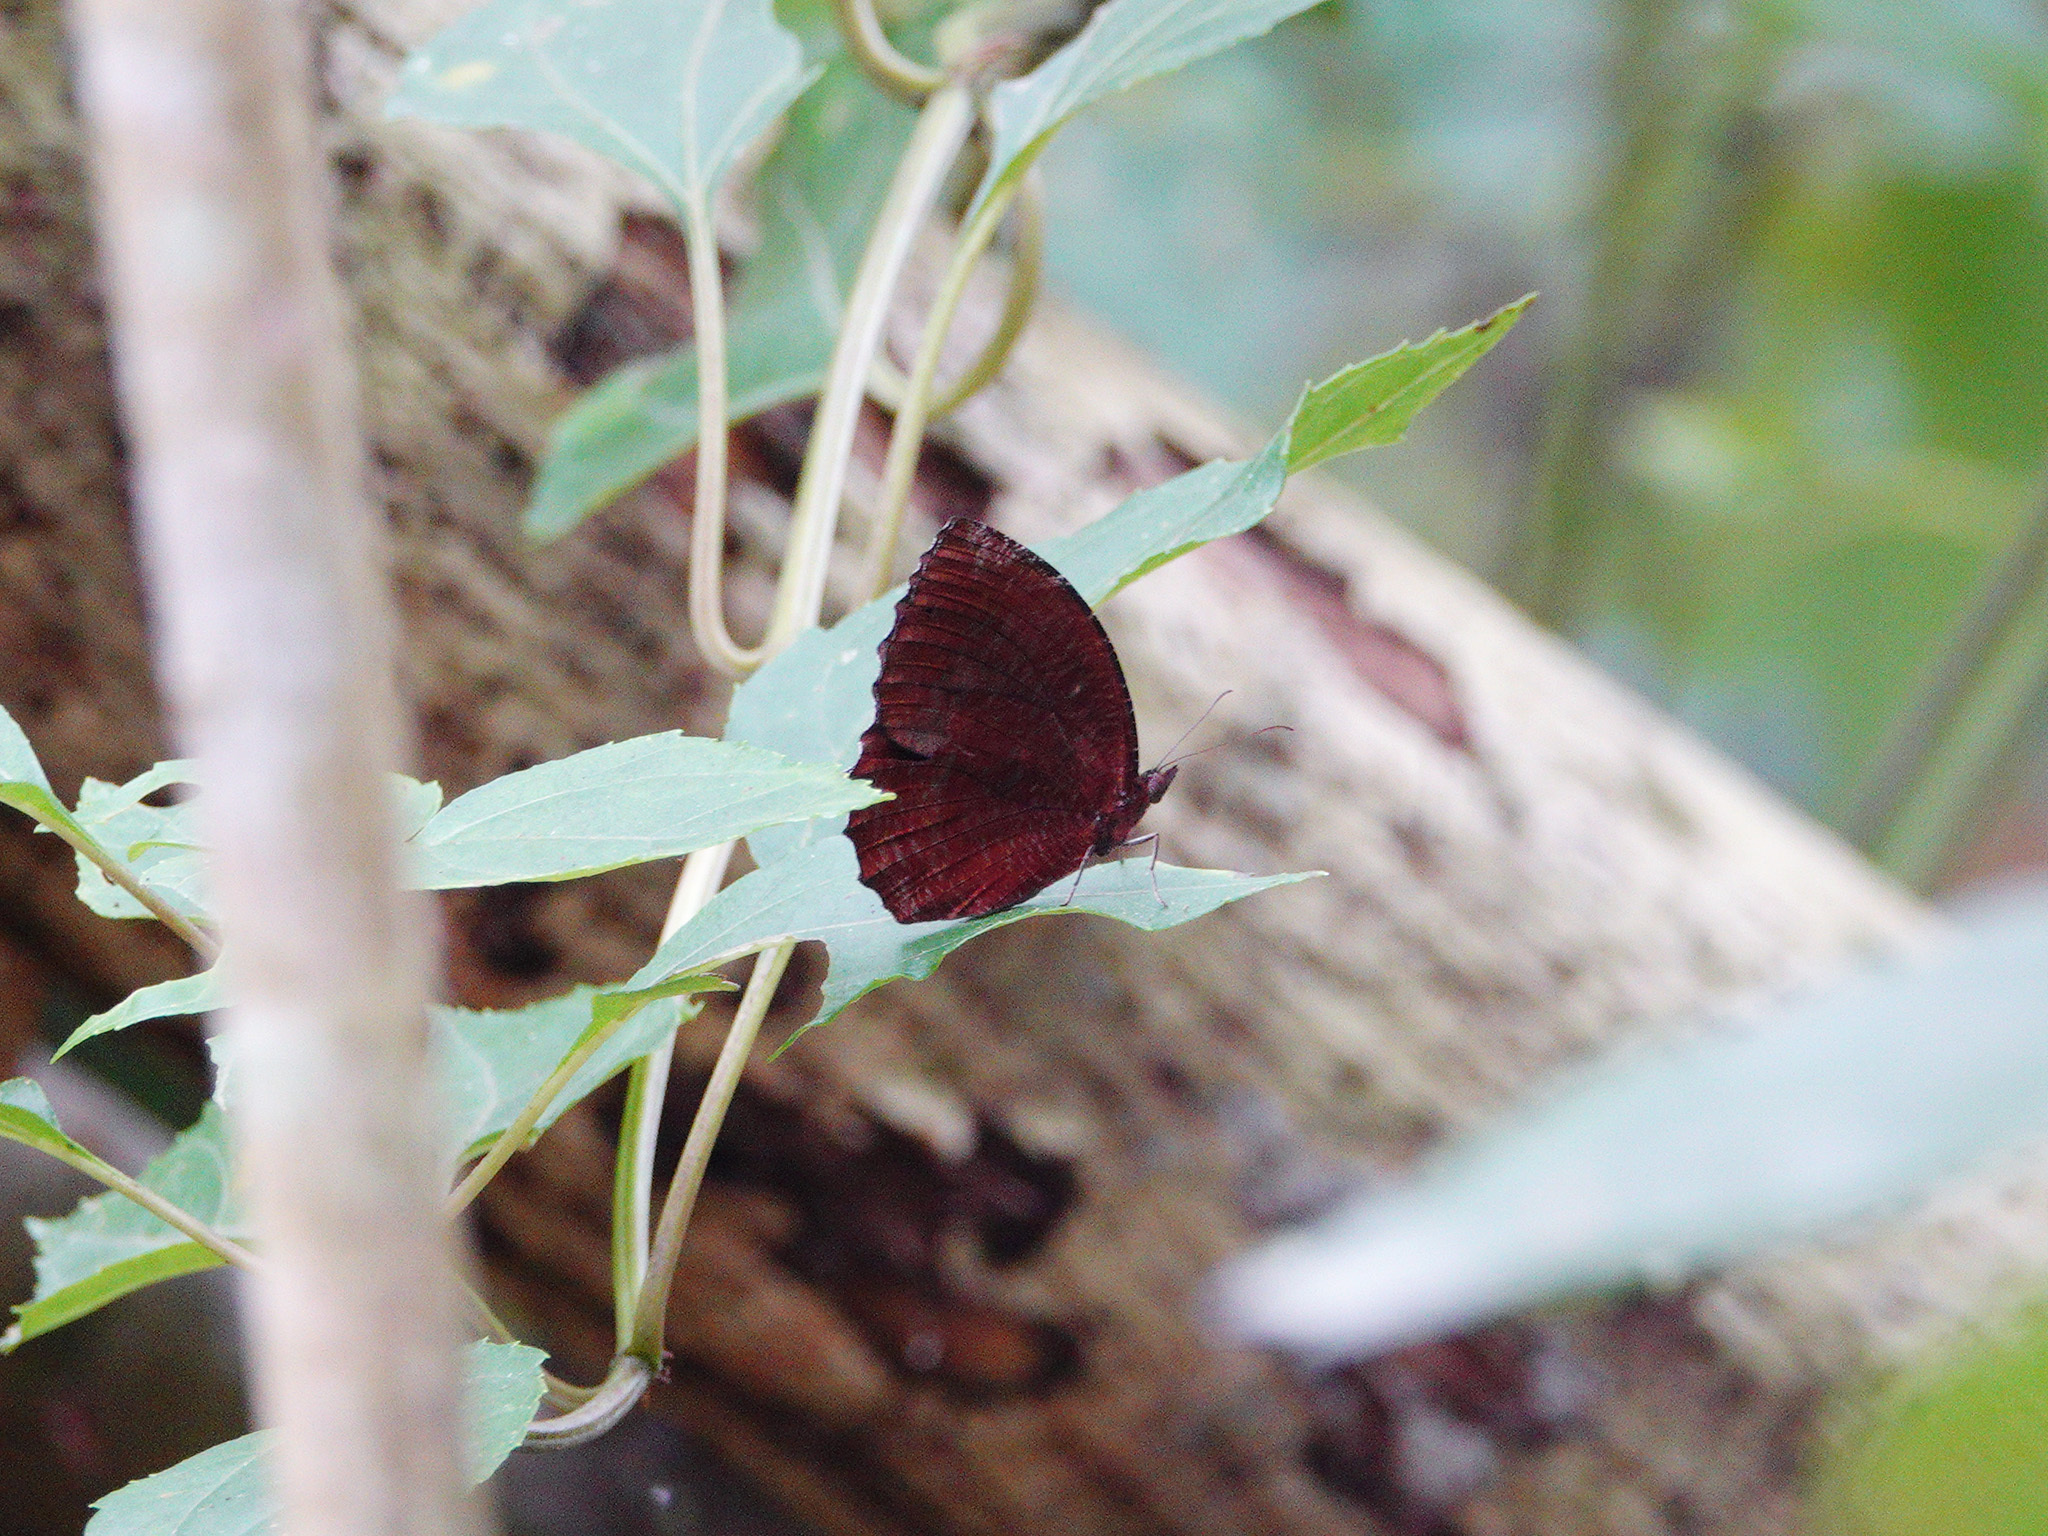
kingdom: Animalia
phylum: Arthropoda
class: Insecta
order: Lepidoptera
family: Nymphalidae
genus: Elymnias
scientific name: Elymnias hypermnestra
